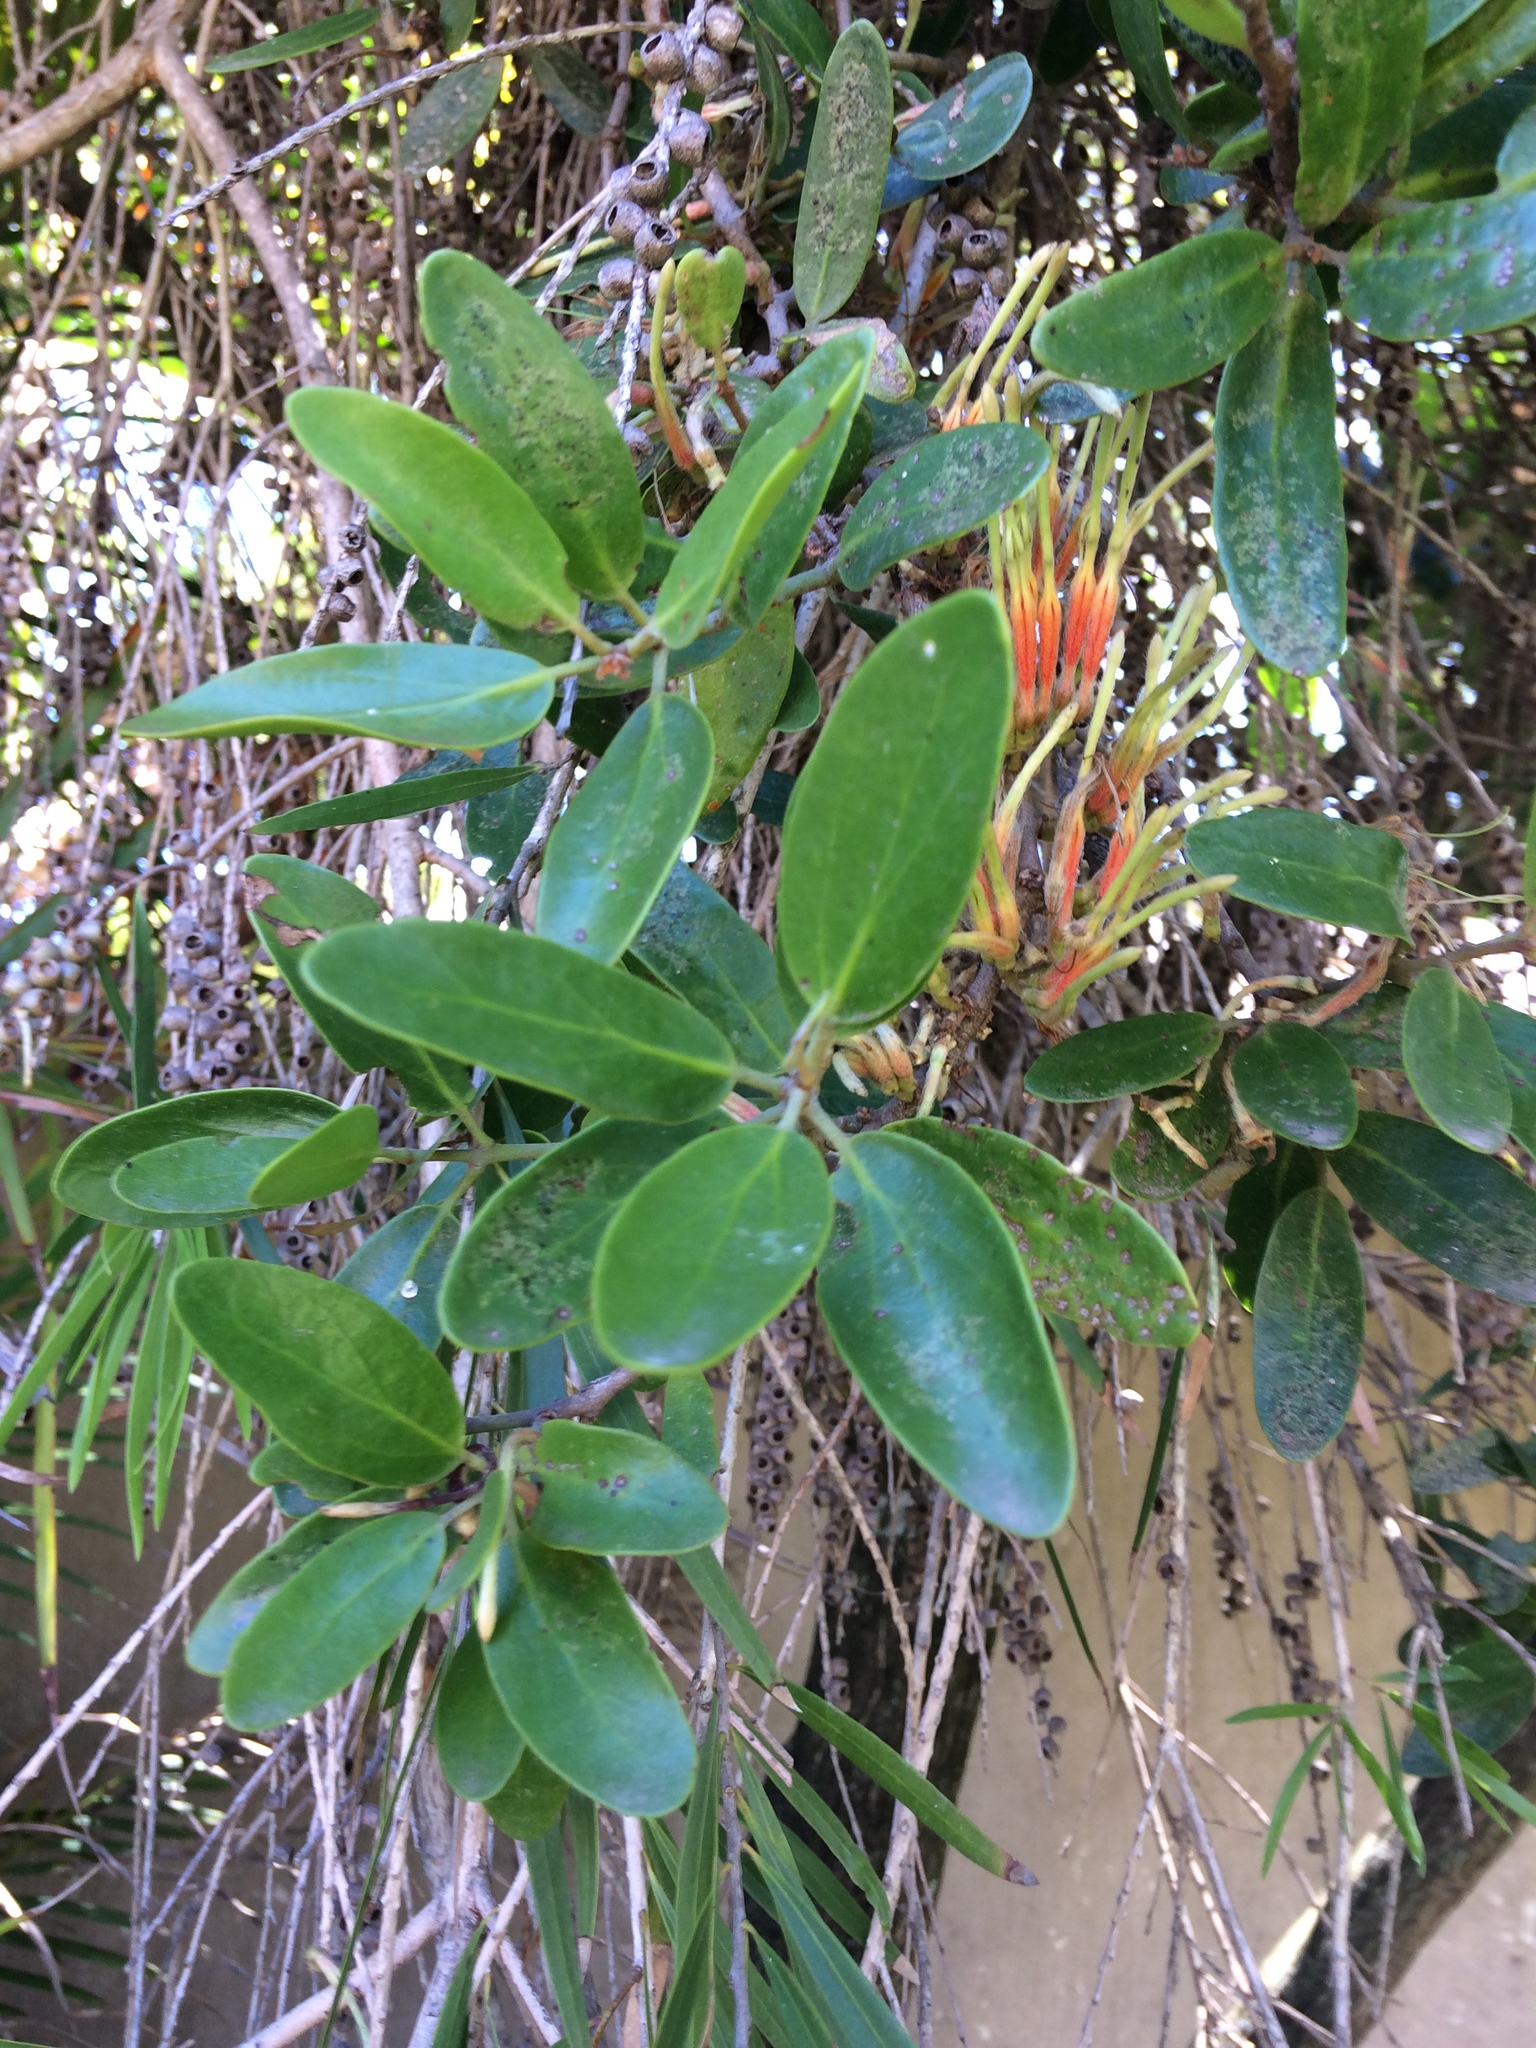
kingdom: Plantae
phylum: Tracheophyta
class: Magnoliopsida
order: Santalales
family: Loranthaceae
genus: Erianthemum
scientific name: Erianthemum dregei
